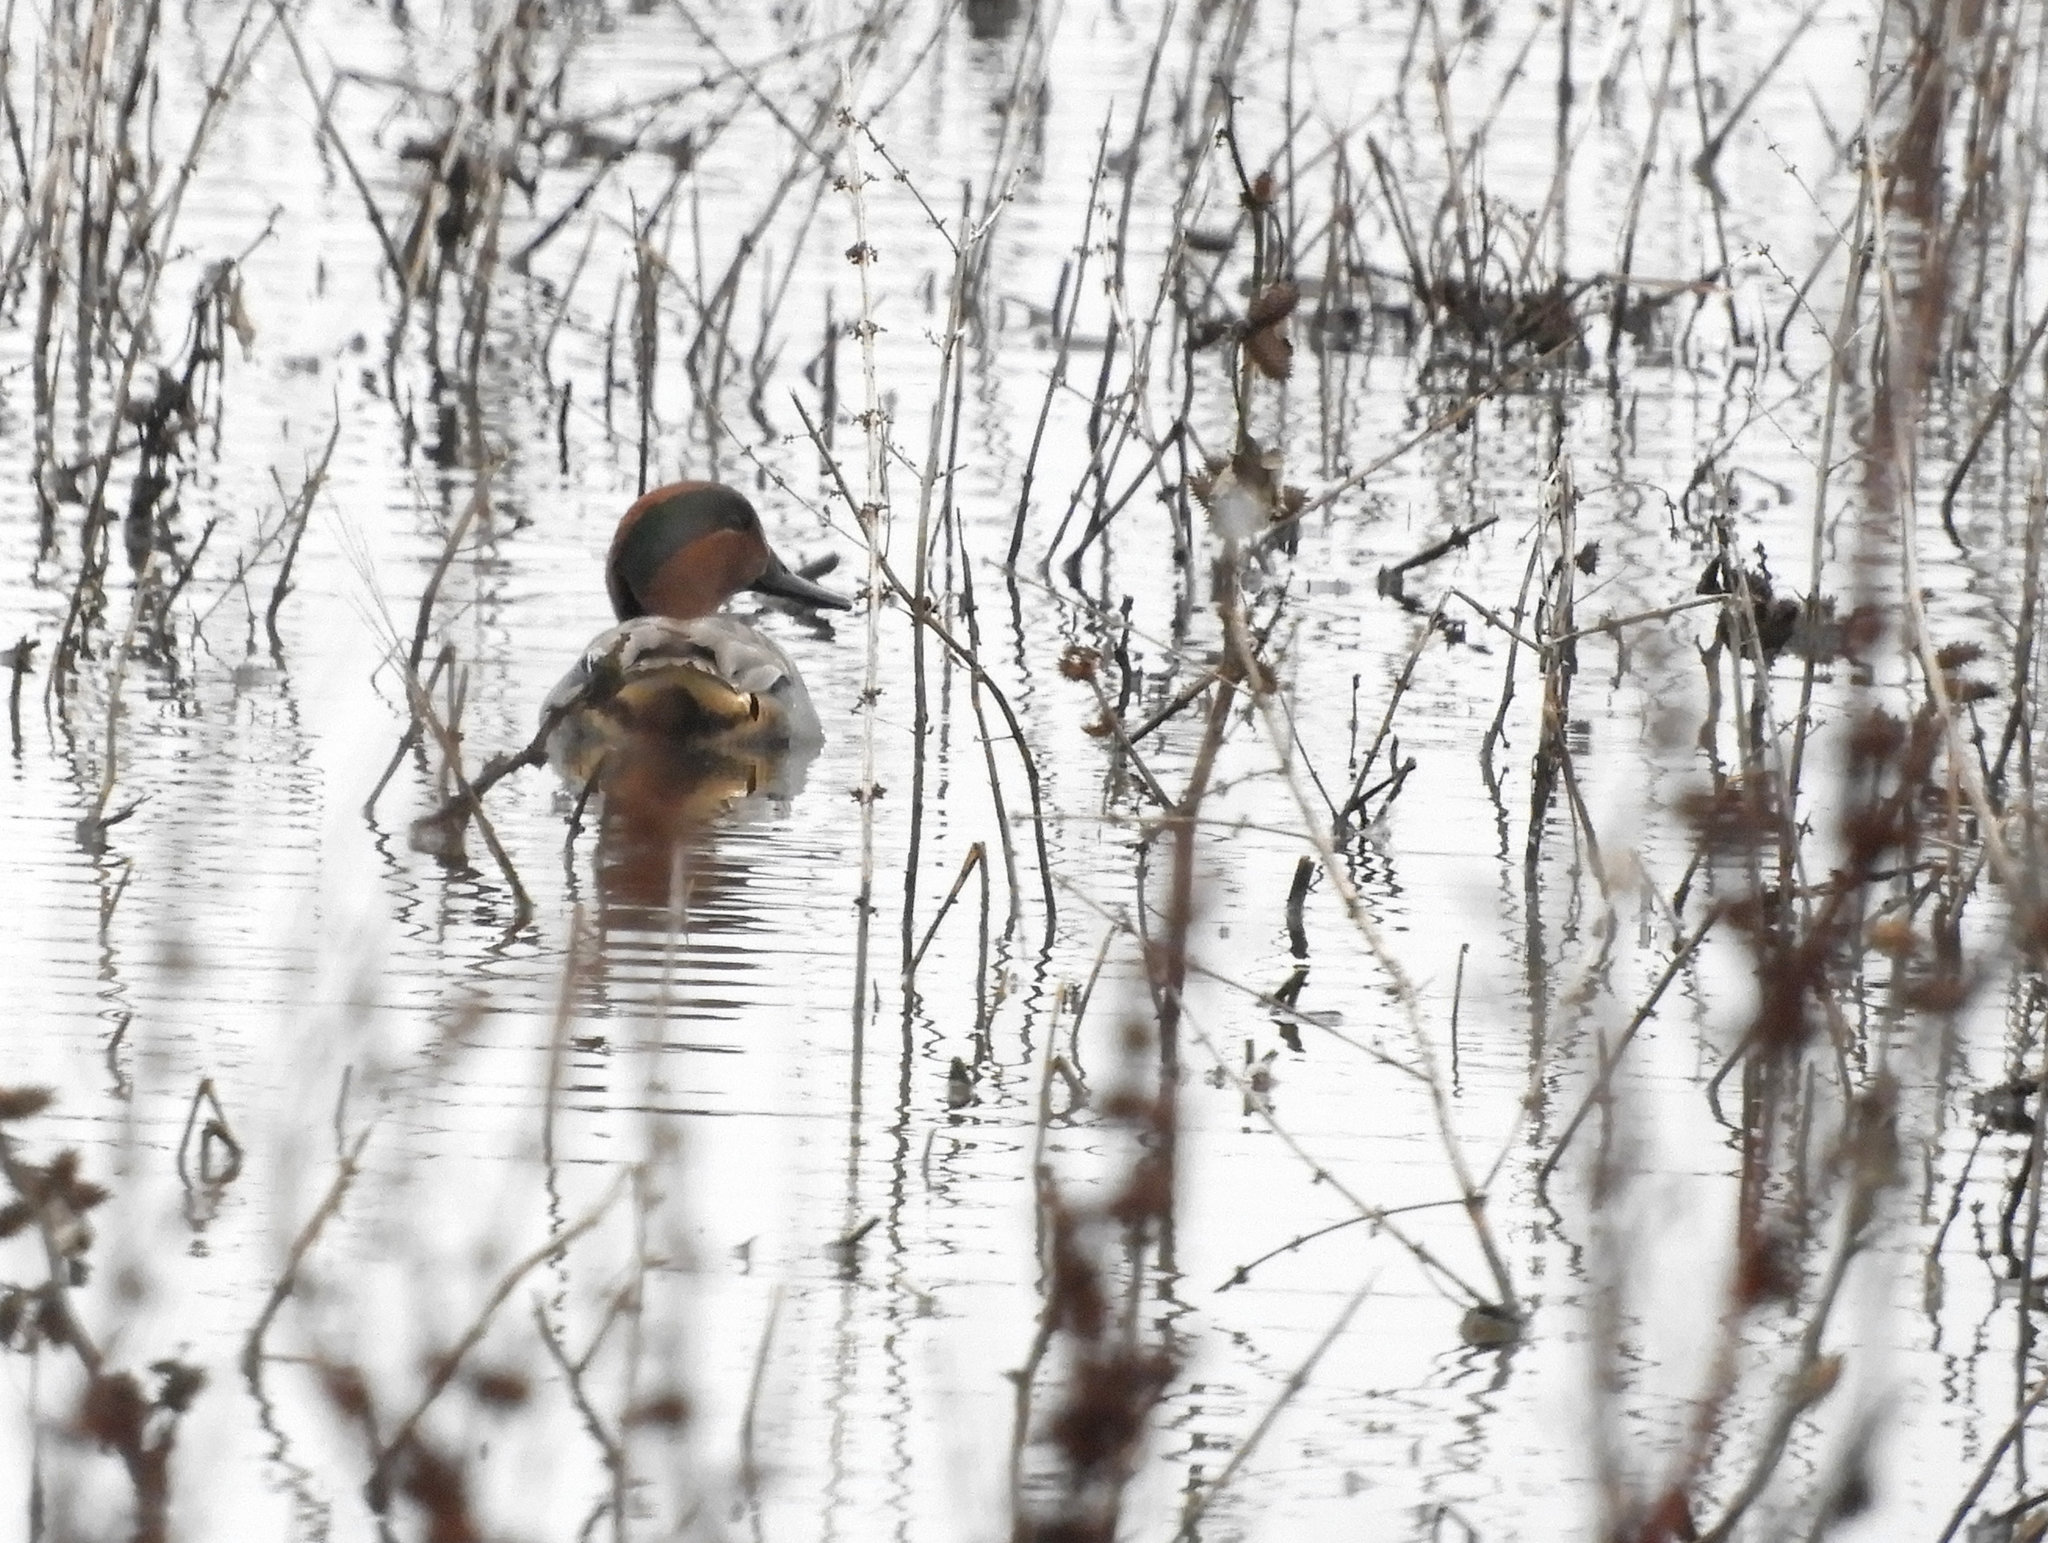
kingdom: Animalia
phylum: Chordata
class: Aves
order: Anseriformes
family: Anatidae
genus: Anas
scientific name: Anas crecca
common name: Eurasian teal
